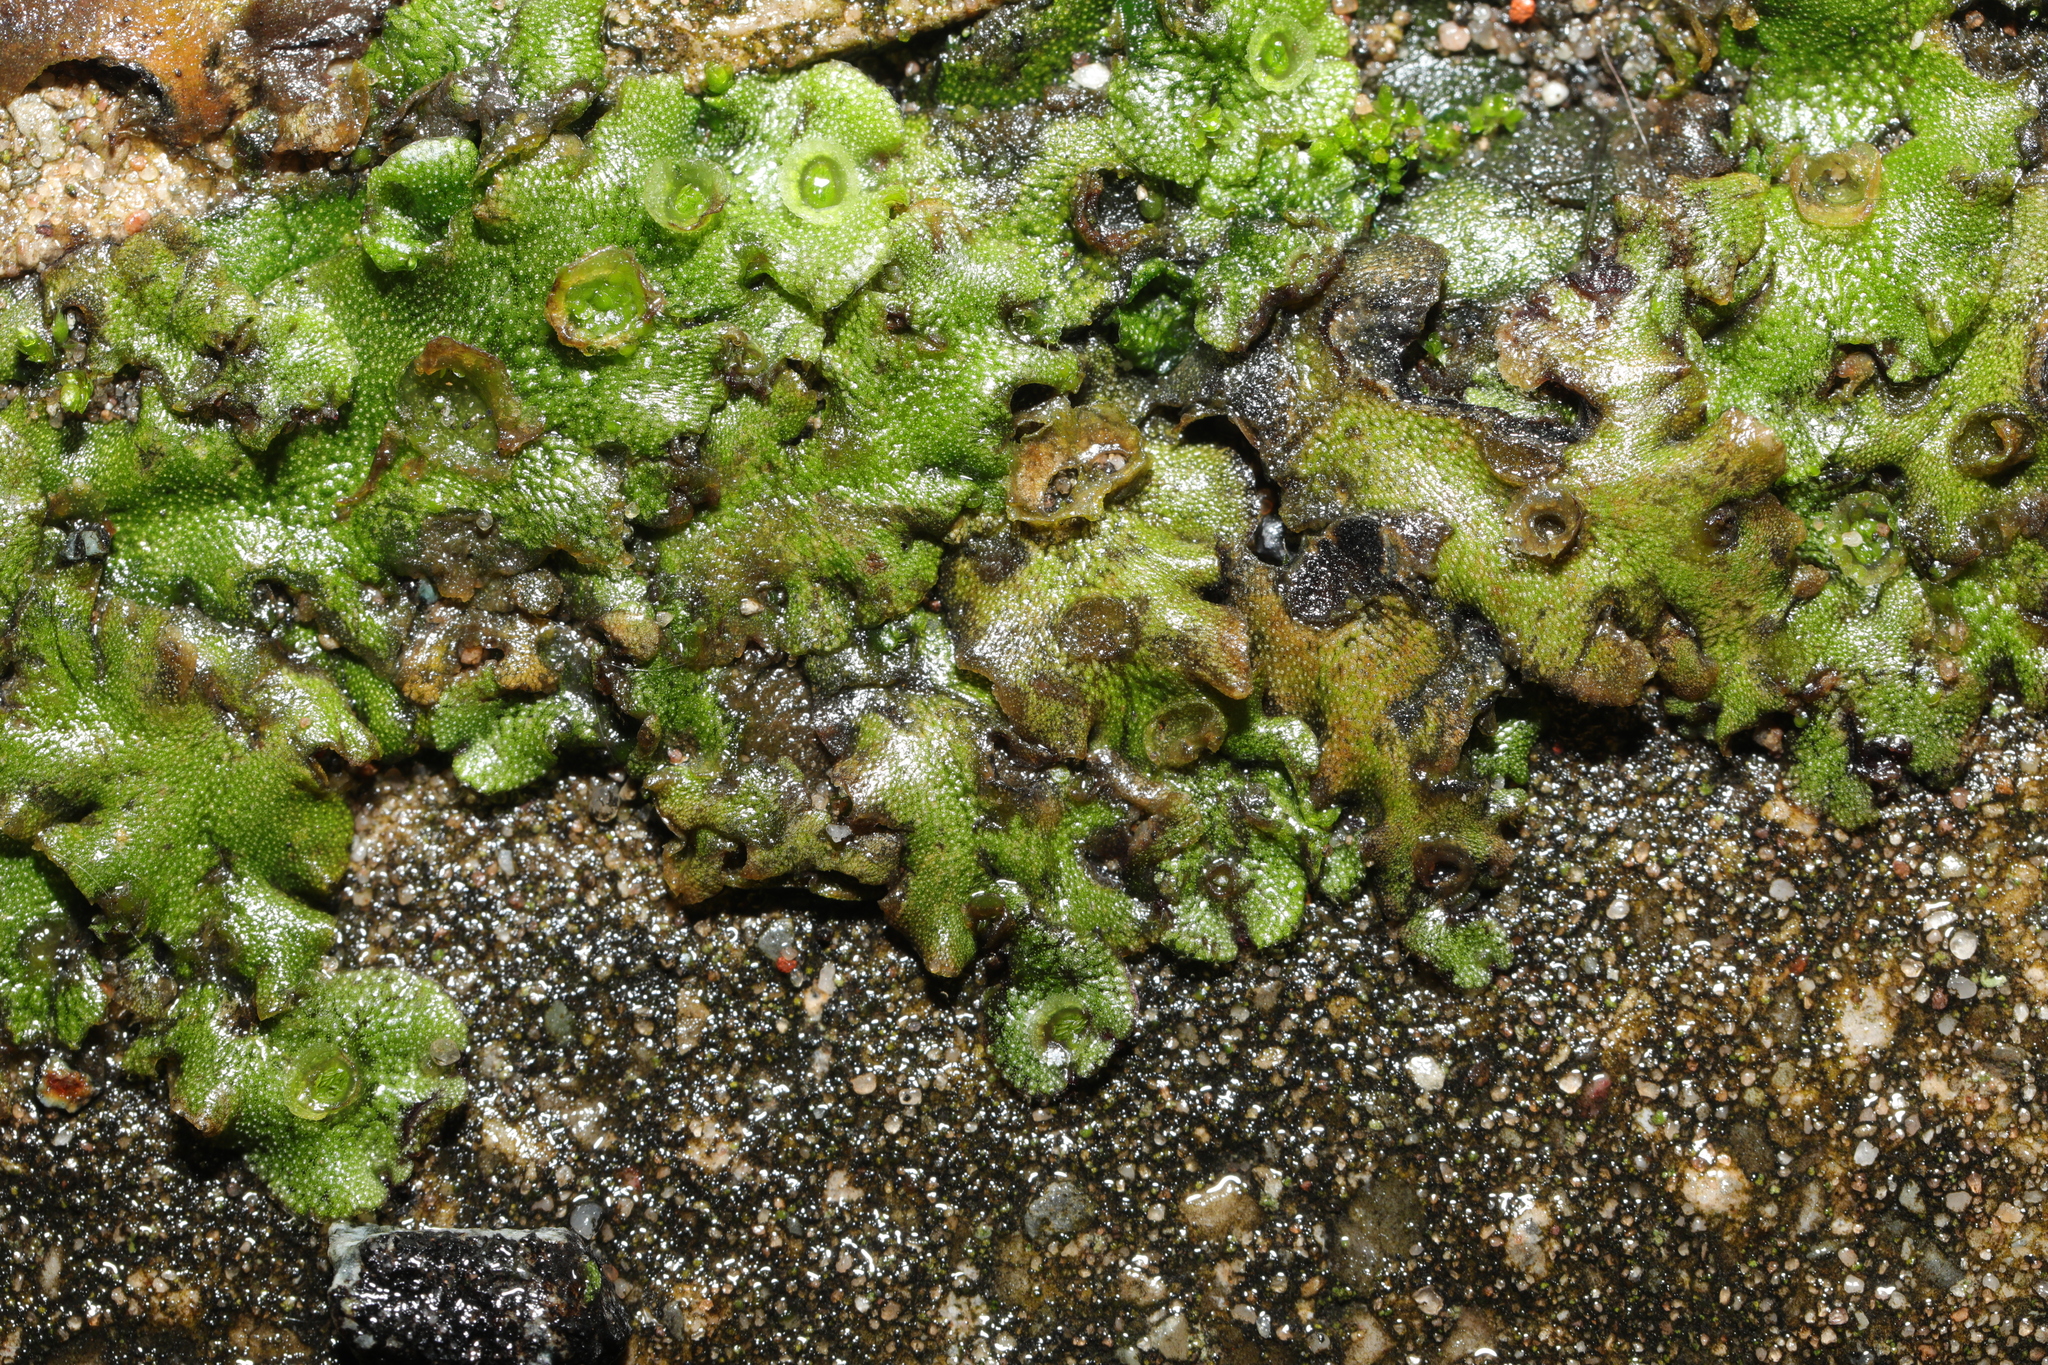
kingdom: Plantae
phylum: Marchantiophyta
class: Marchantiopsida
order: Marchantiales
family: Marchantiaceae
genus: Marchantia
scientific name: Marchantia polymorpha
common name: Common liverwort
